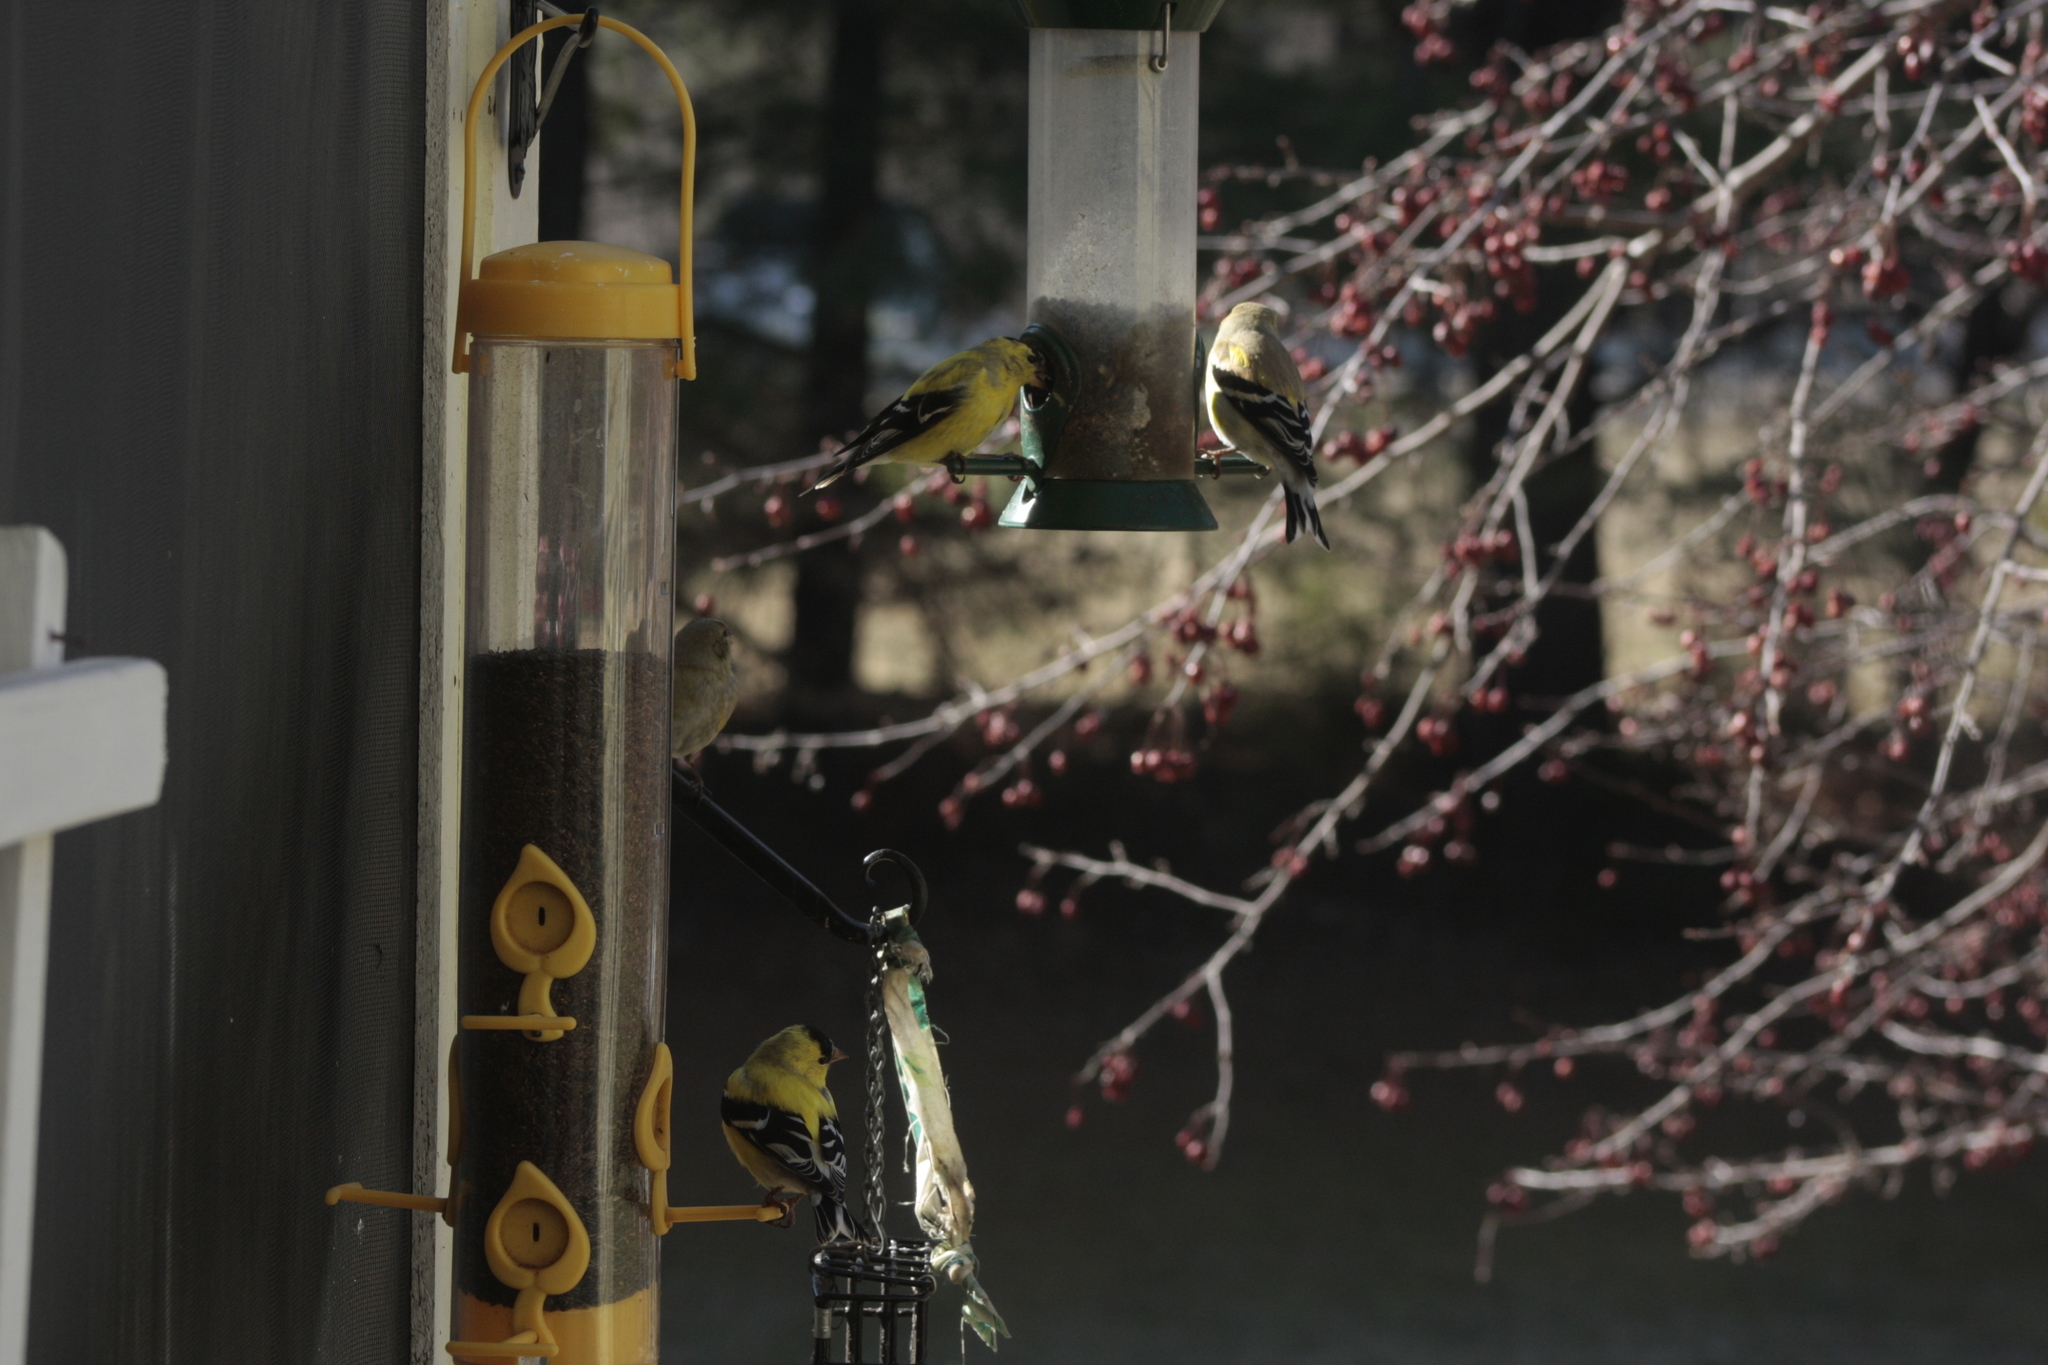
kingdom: Animalia
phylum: Chordata
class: Aves
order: Passeriformes
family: Fringillidae
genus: Spinus
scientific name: Spinus tristis
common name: American goldfinch
